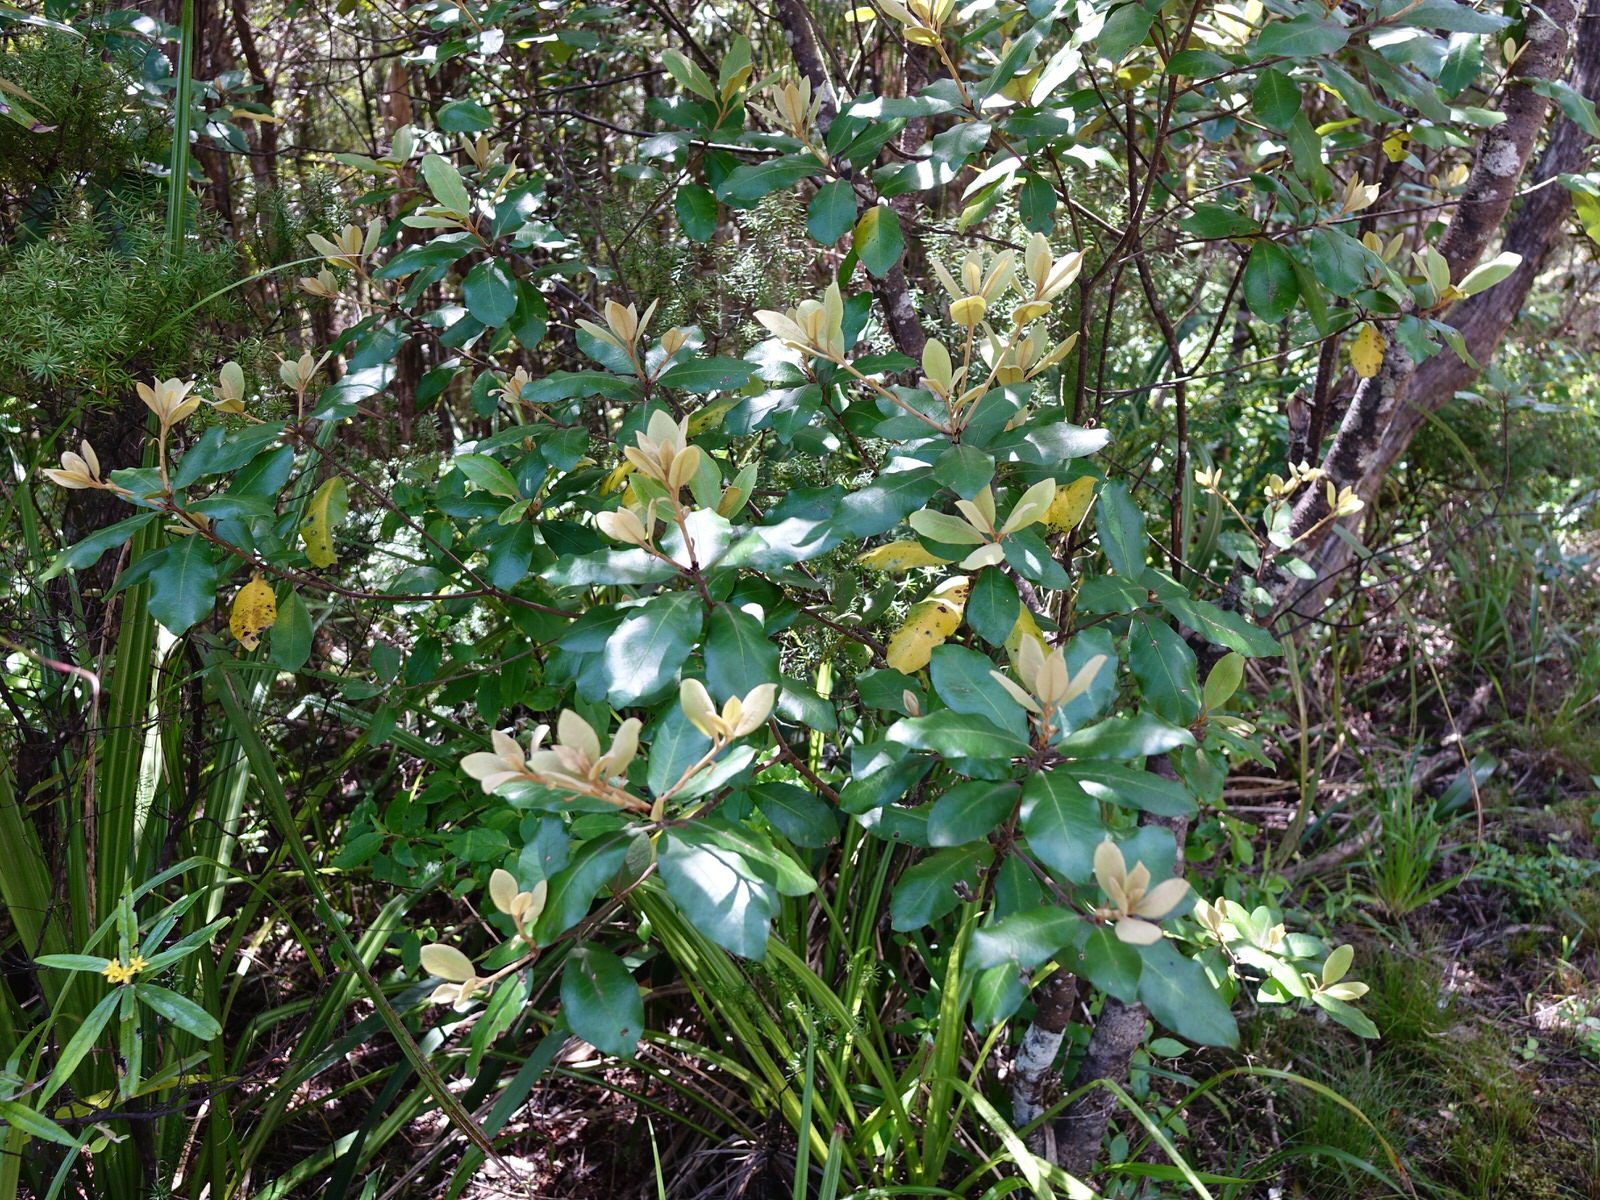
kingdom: Plantae
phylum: Tracheophyta
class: Magnoliopsida
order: Apiales
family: Pittosporaceae
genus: Pittosporum
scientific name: Pittosporum ellipticum
